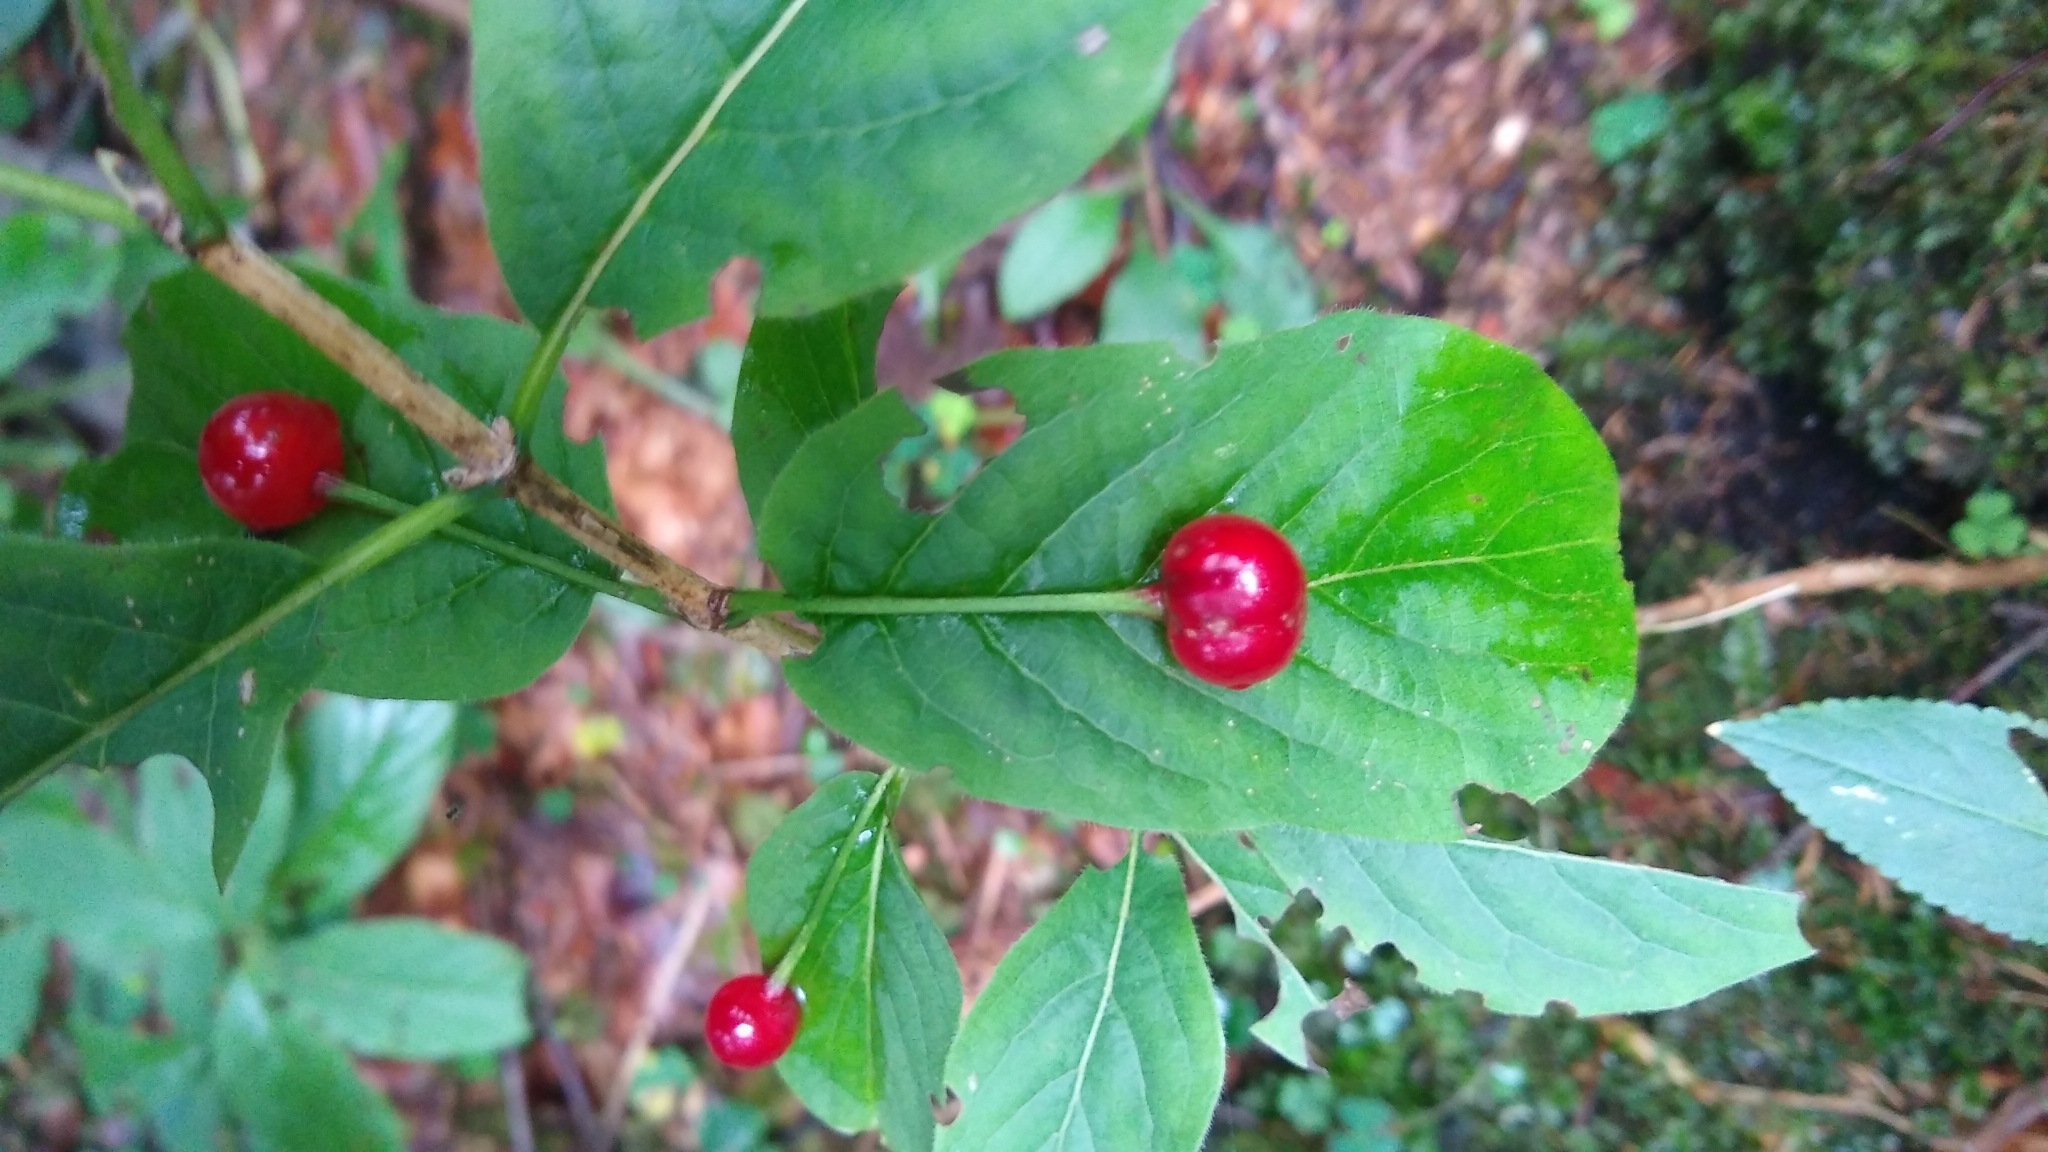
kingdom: Plantae
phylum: Tracheophyta
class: Magnoliopsida
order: Dipsacales
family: Caprifoliaceae
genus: Lonicera
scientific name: Lonicera alpigena
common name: Alpine honeysuckle
